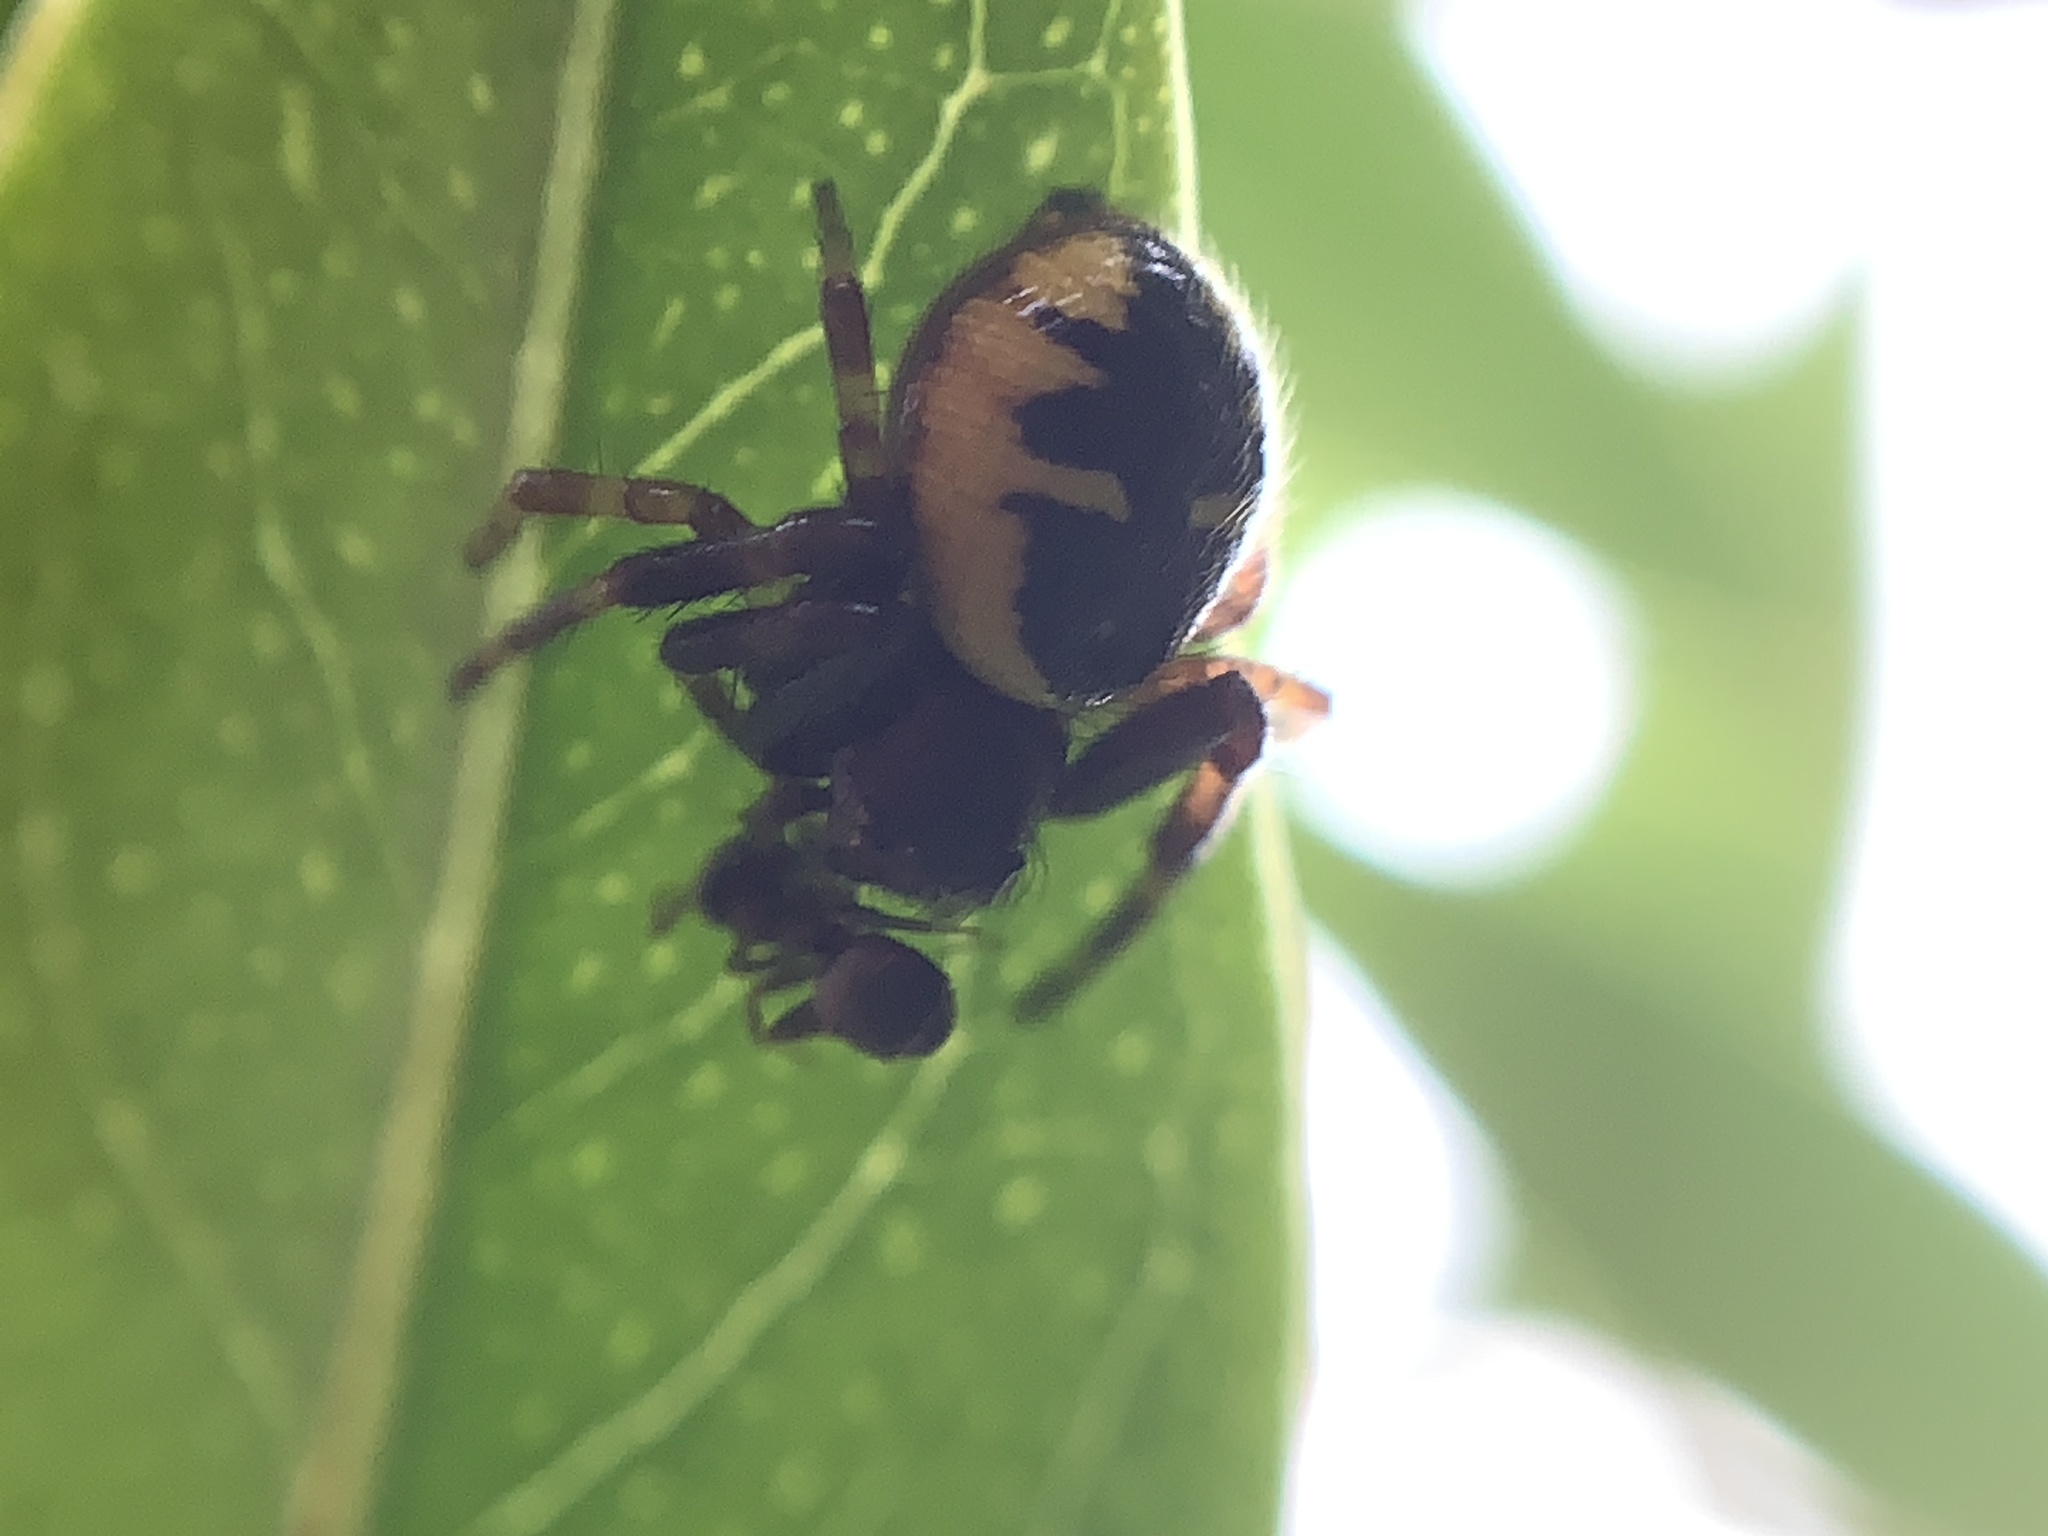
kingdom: Animalia
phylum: Arthropoda
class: Arachnida
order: Araneae
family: Thomisidae
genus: Synema
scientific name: Synema globosum
